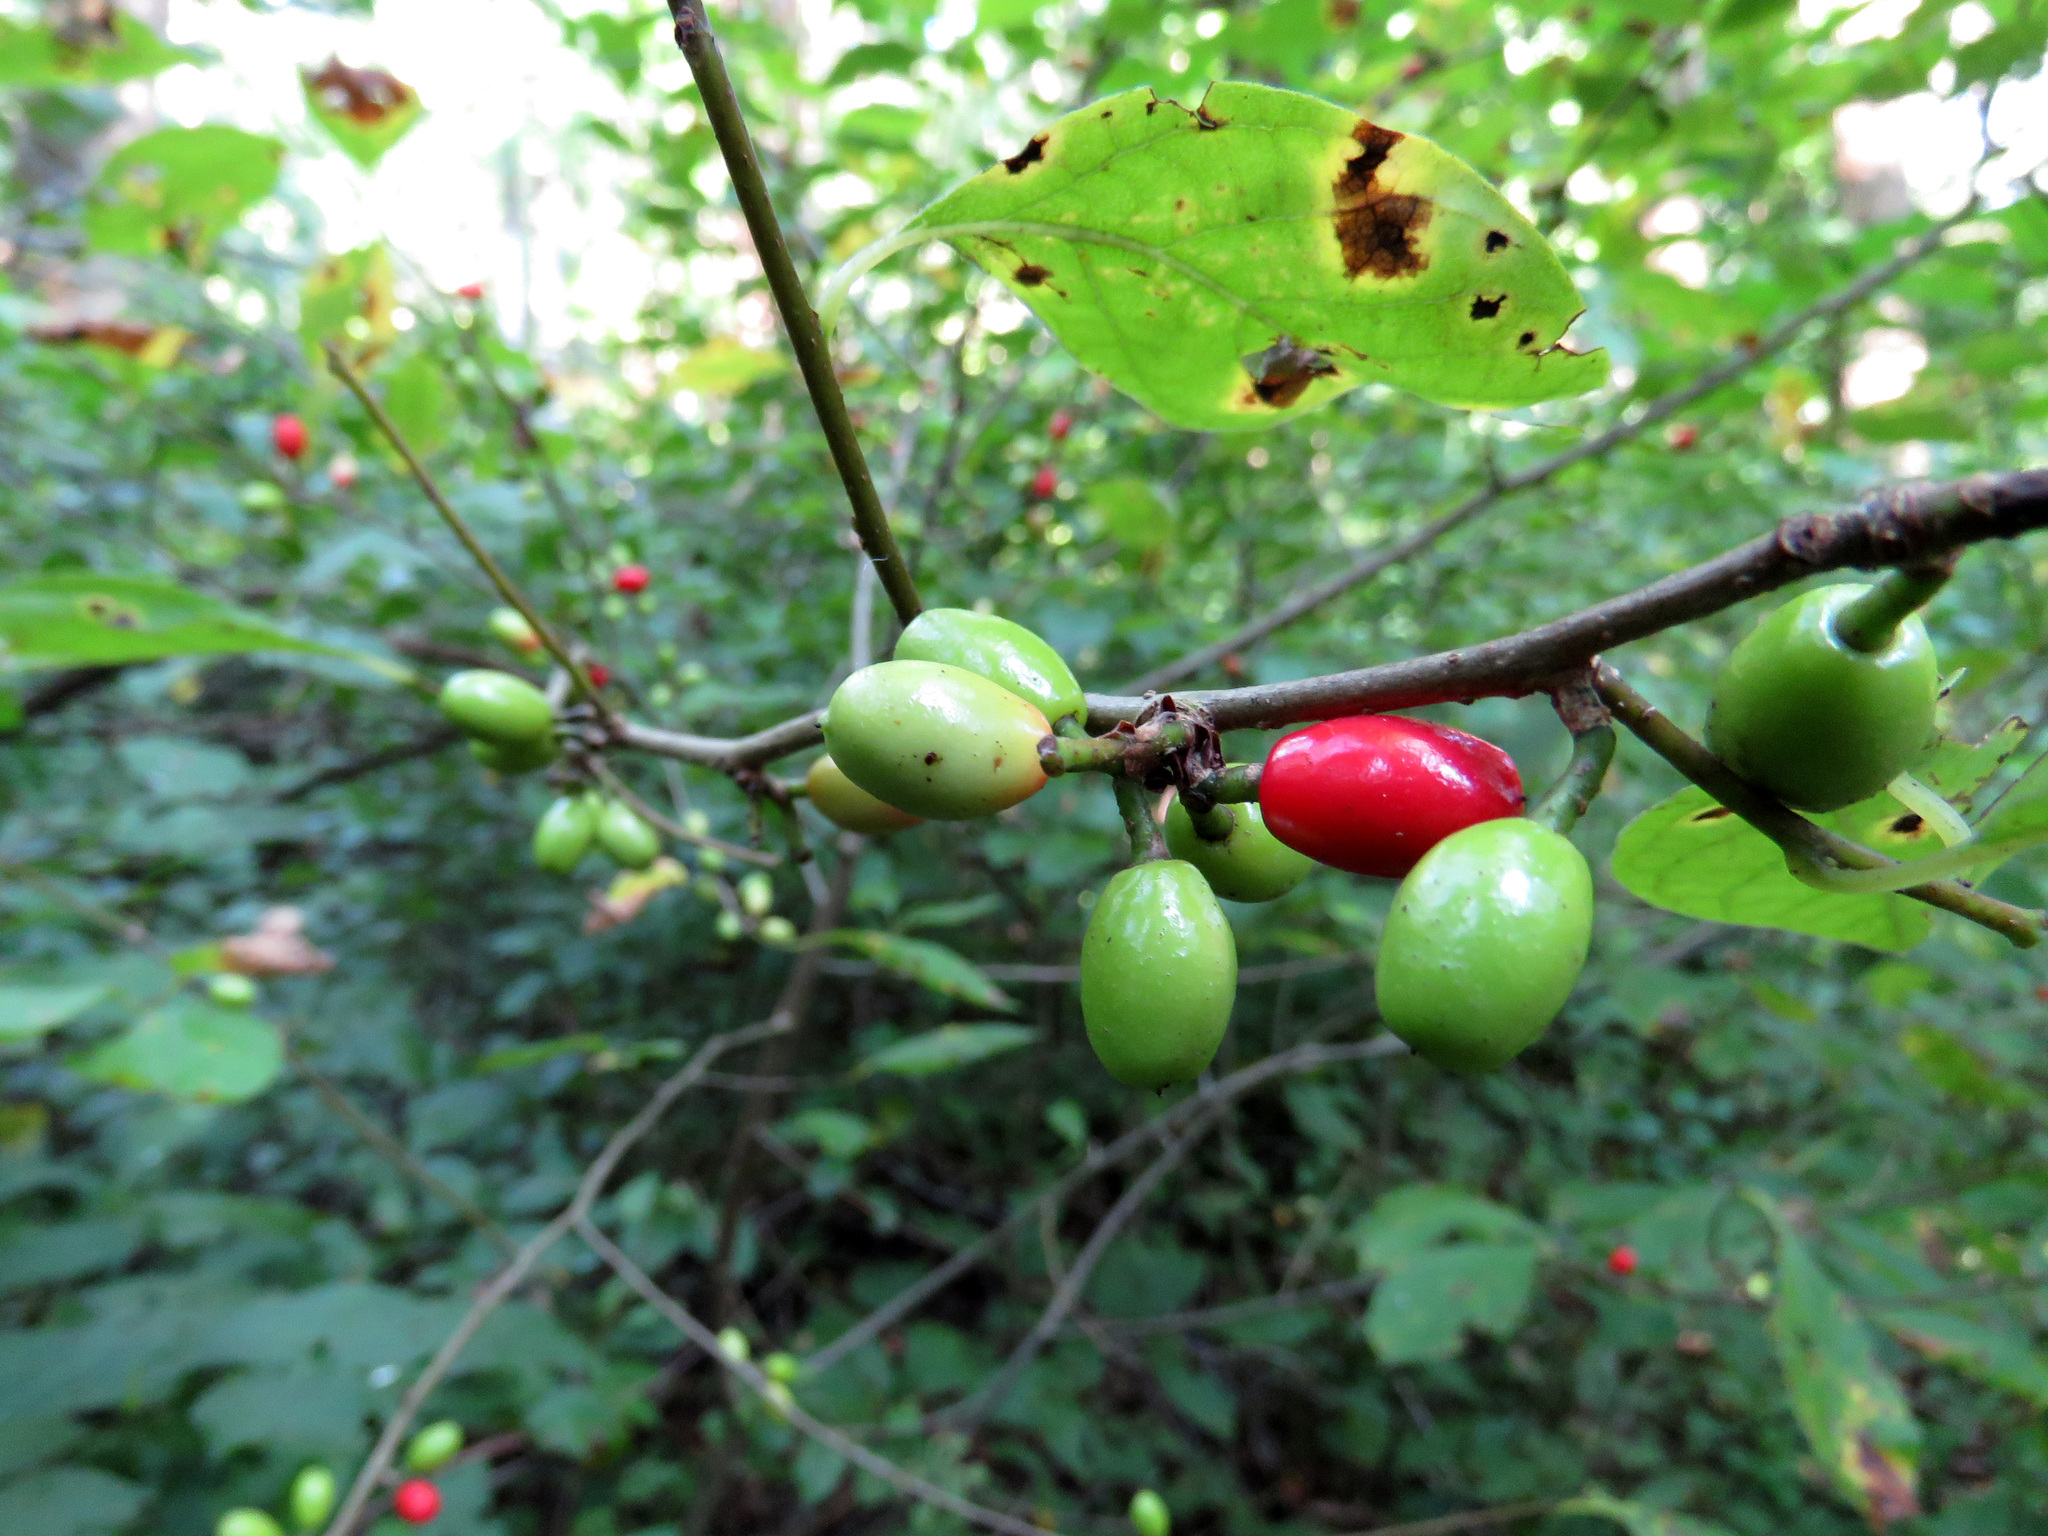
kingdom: Plantae
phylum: Tracheophyta
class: Magnoliopsida
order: Laurales
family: Lauraceae
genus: Lindera
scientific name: Lindera benzoin
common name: Spicebush
